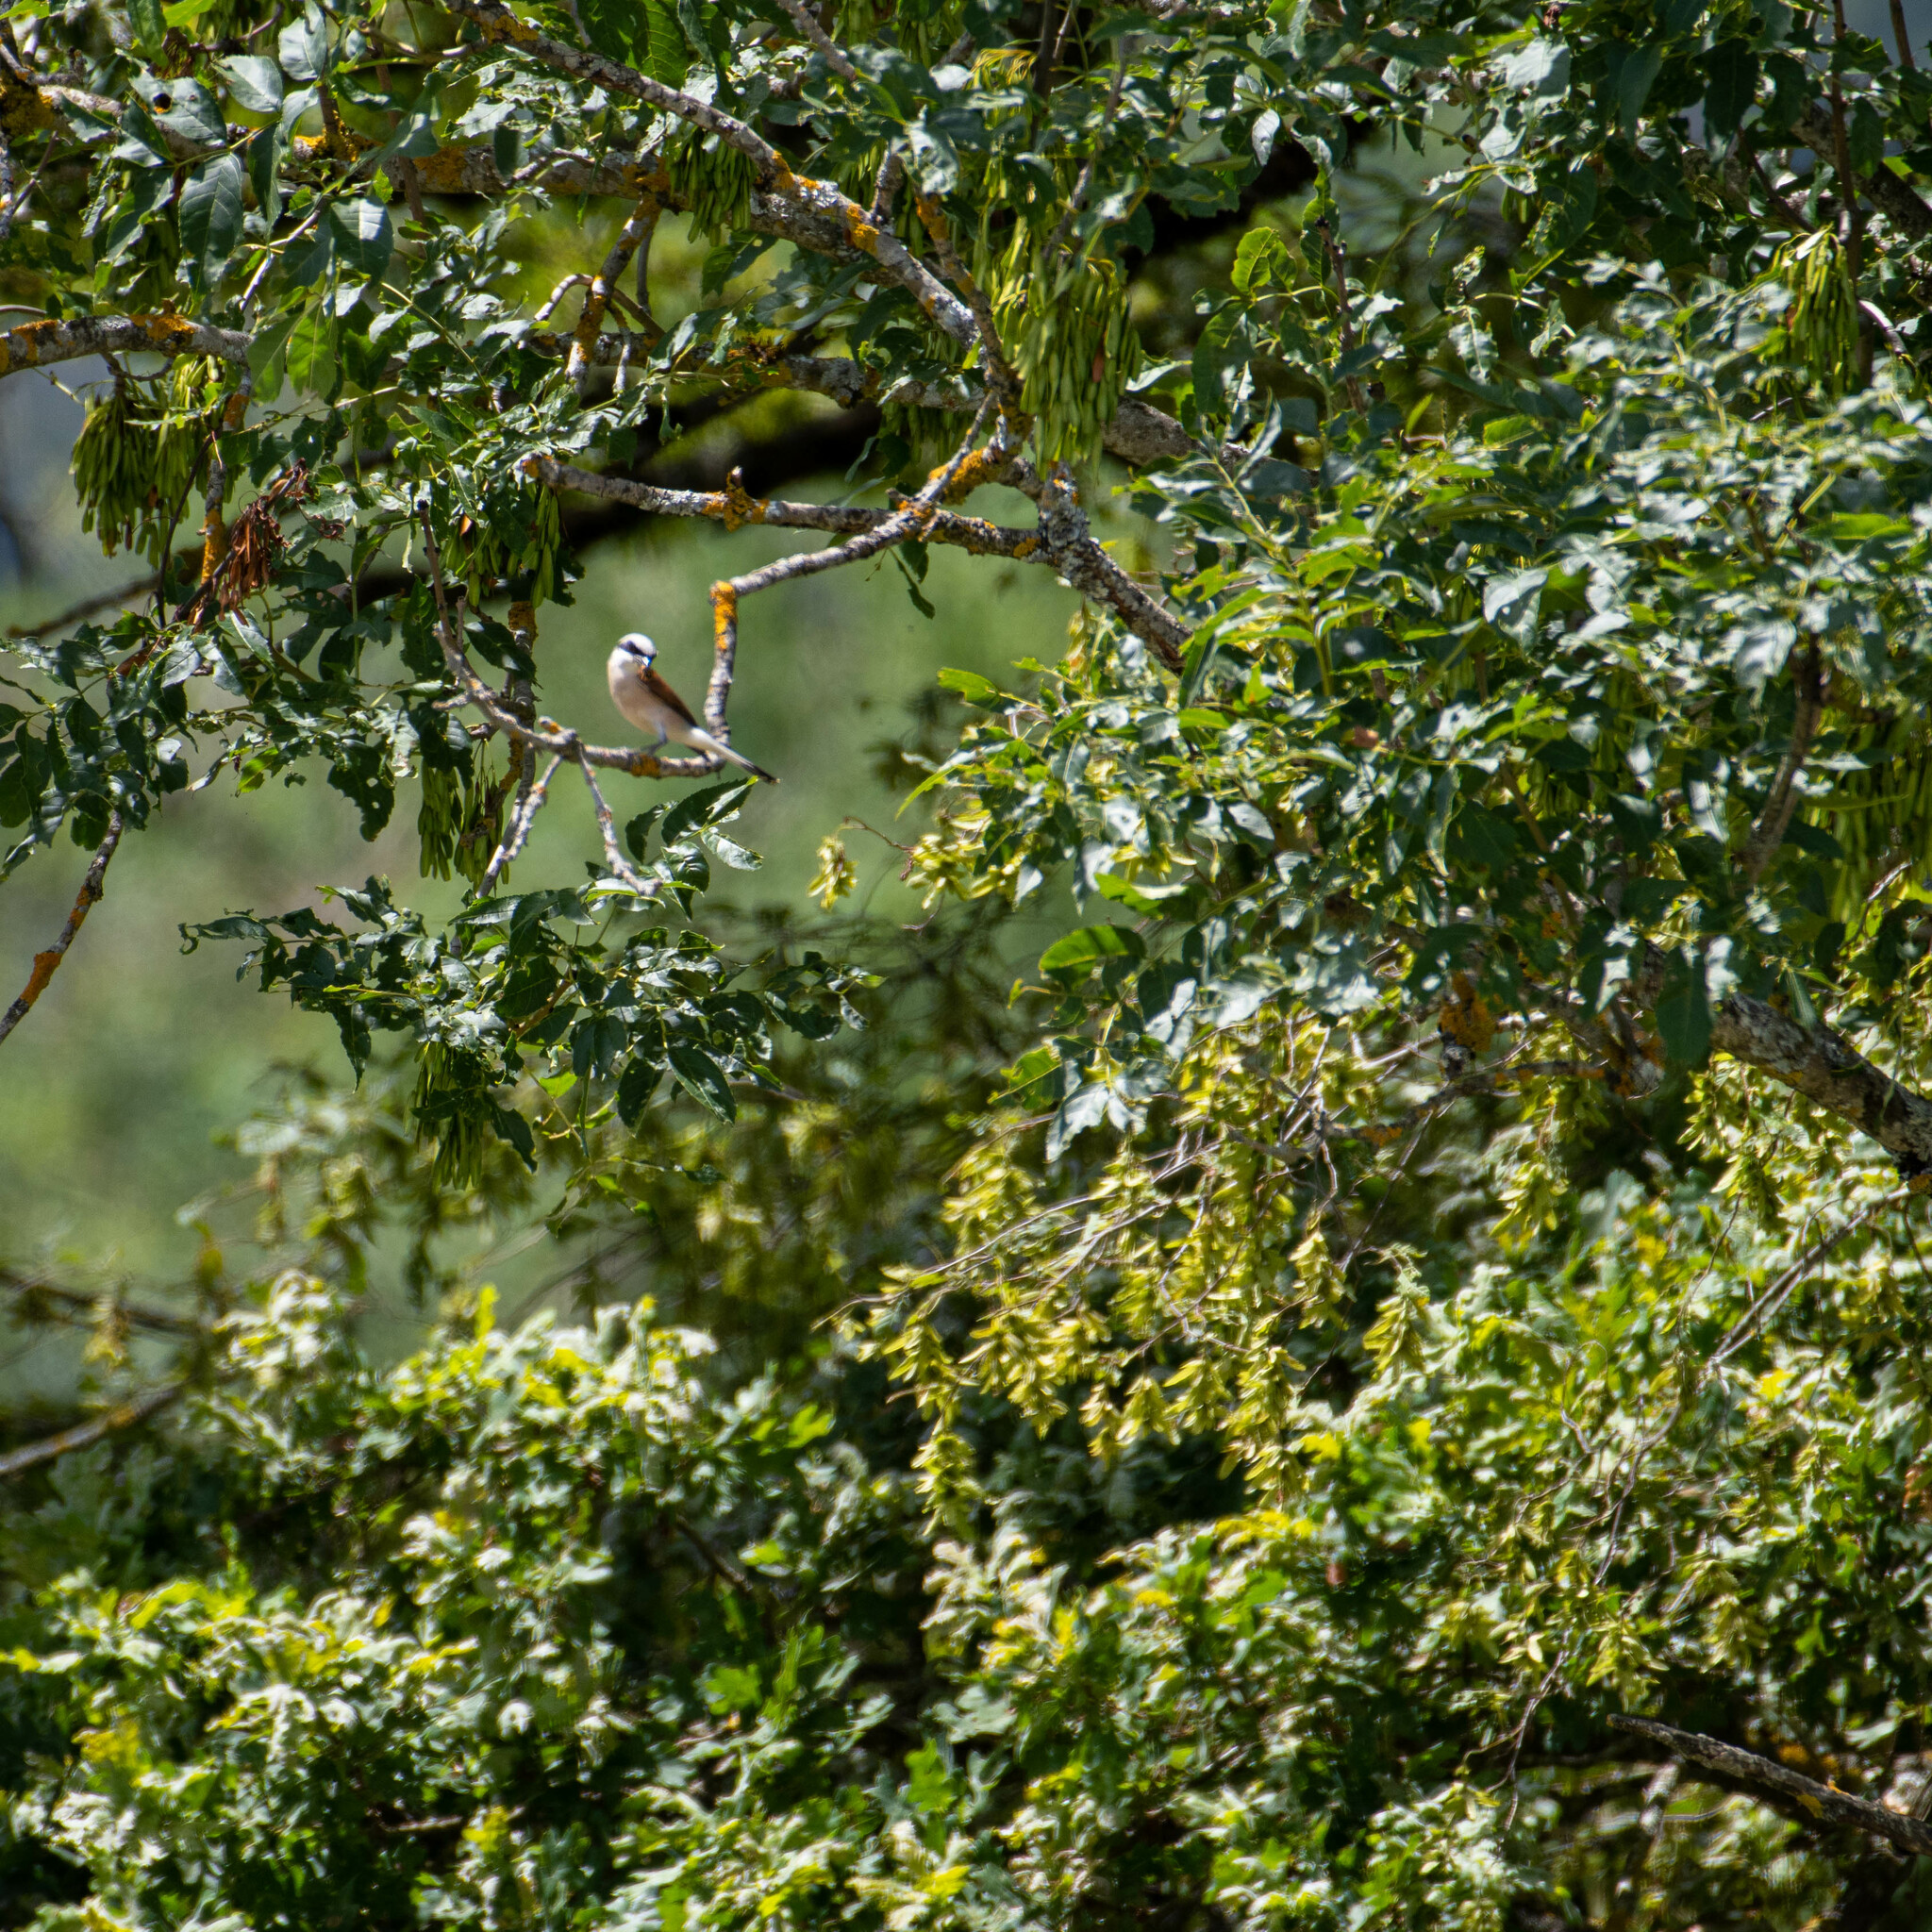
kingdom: Animalia
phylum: Chordata
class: Aves
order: Passeriformes
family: Laniidae
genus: Lanius
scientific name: Lanius collurio
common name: Red-backed shrike
